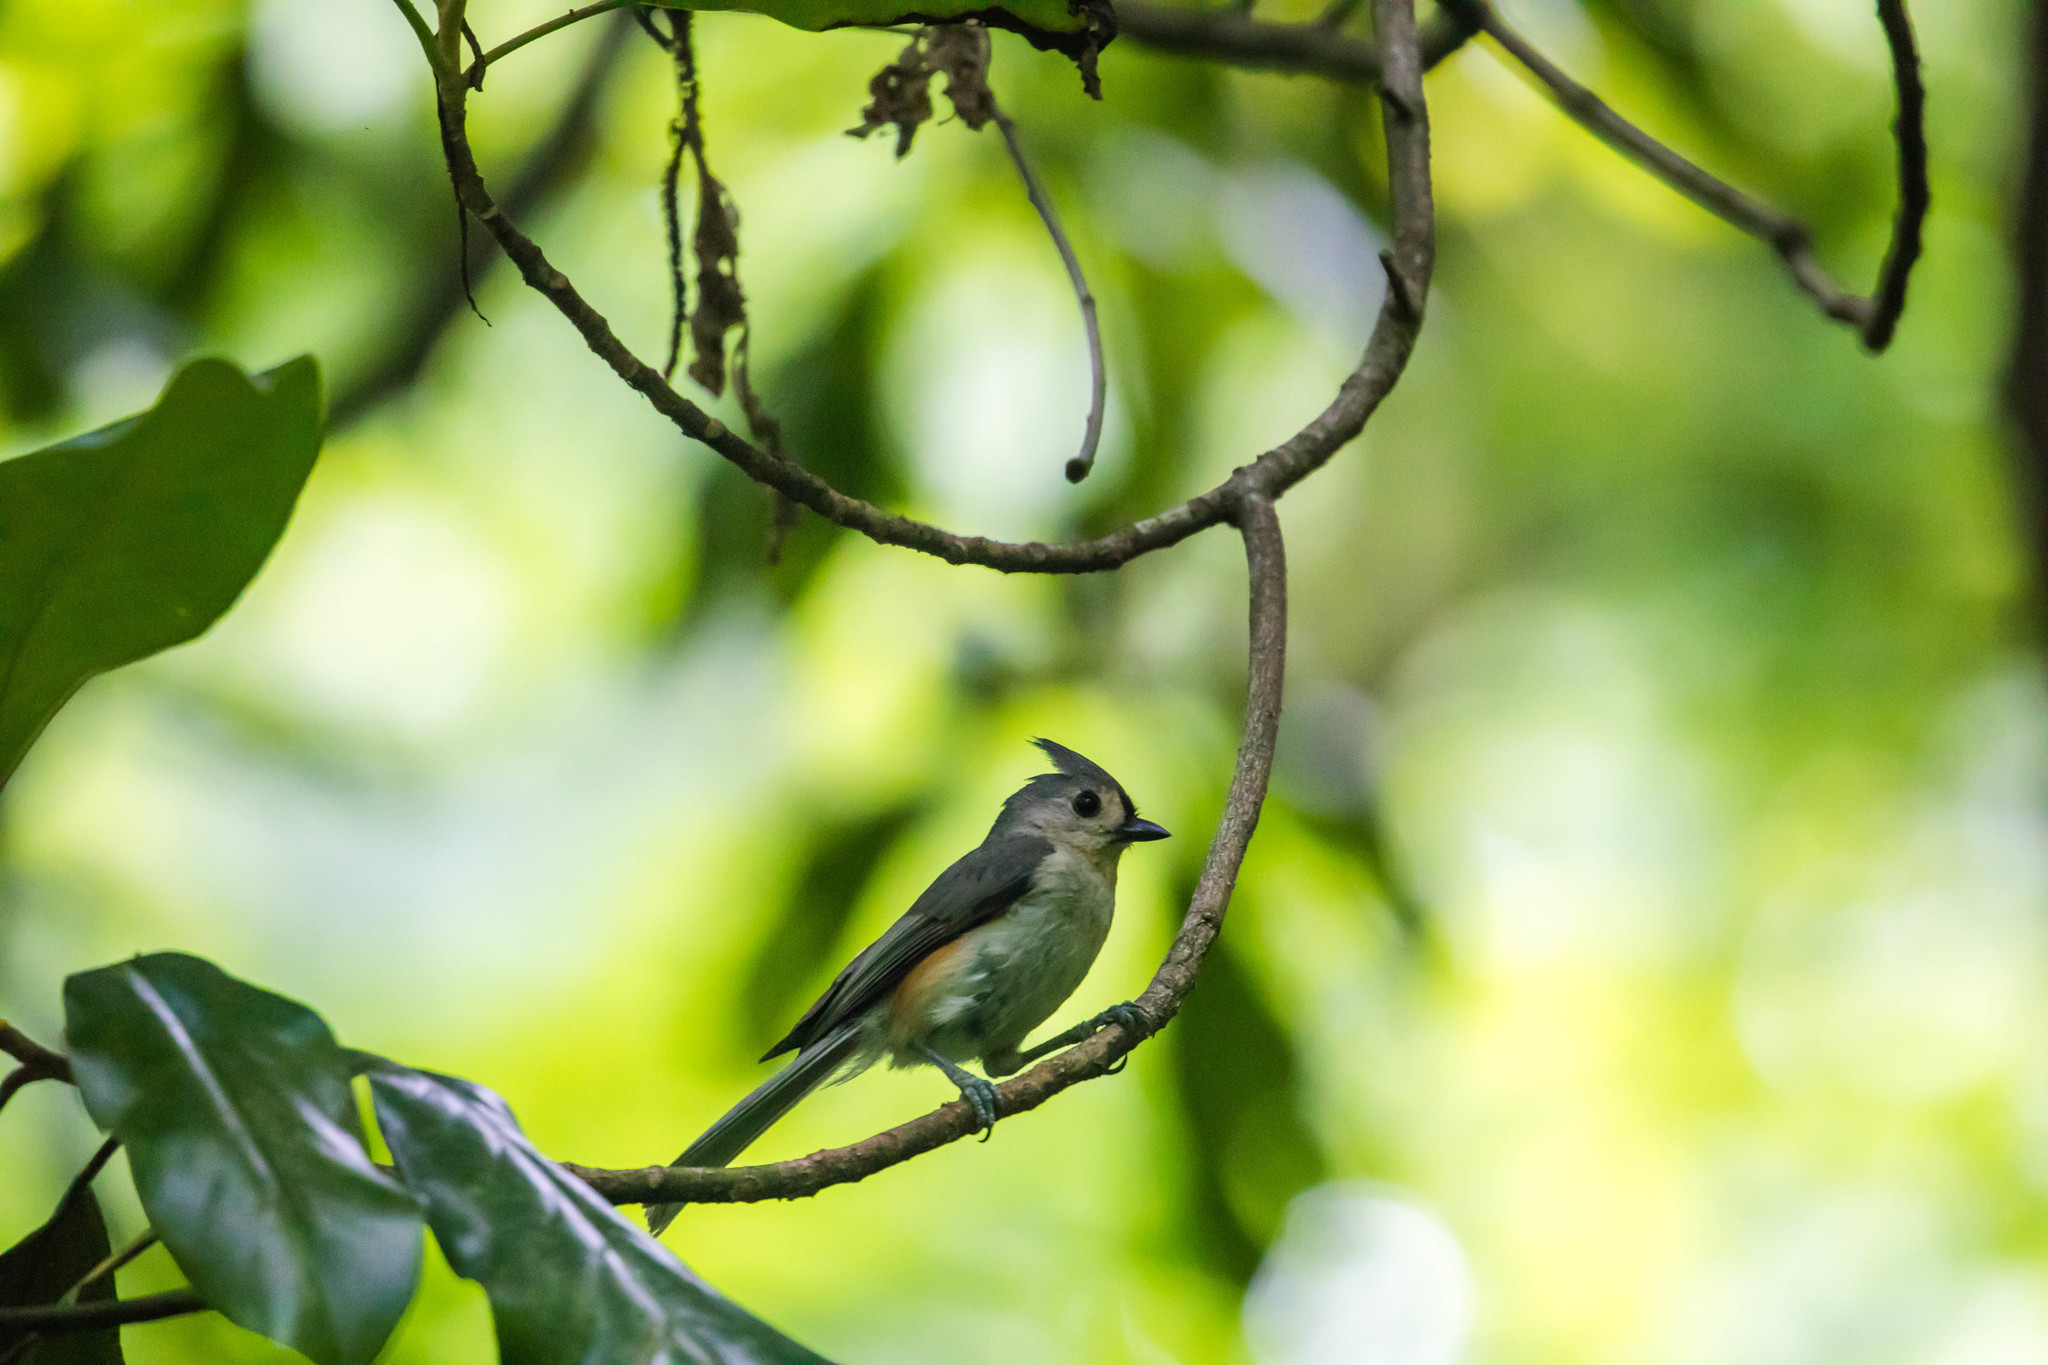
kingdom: Animalia
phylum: Chordata
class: Aves
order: Passeriformes
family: Paridae
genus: Baeolophus
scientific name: Baeolophus bicolor
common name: Tufted titmouse
